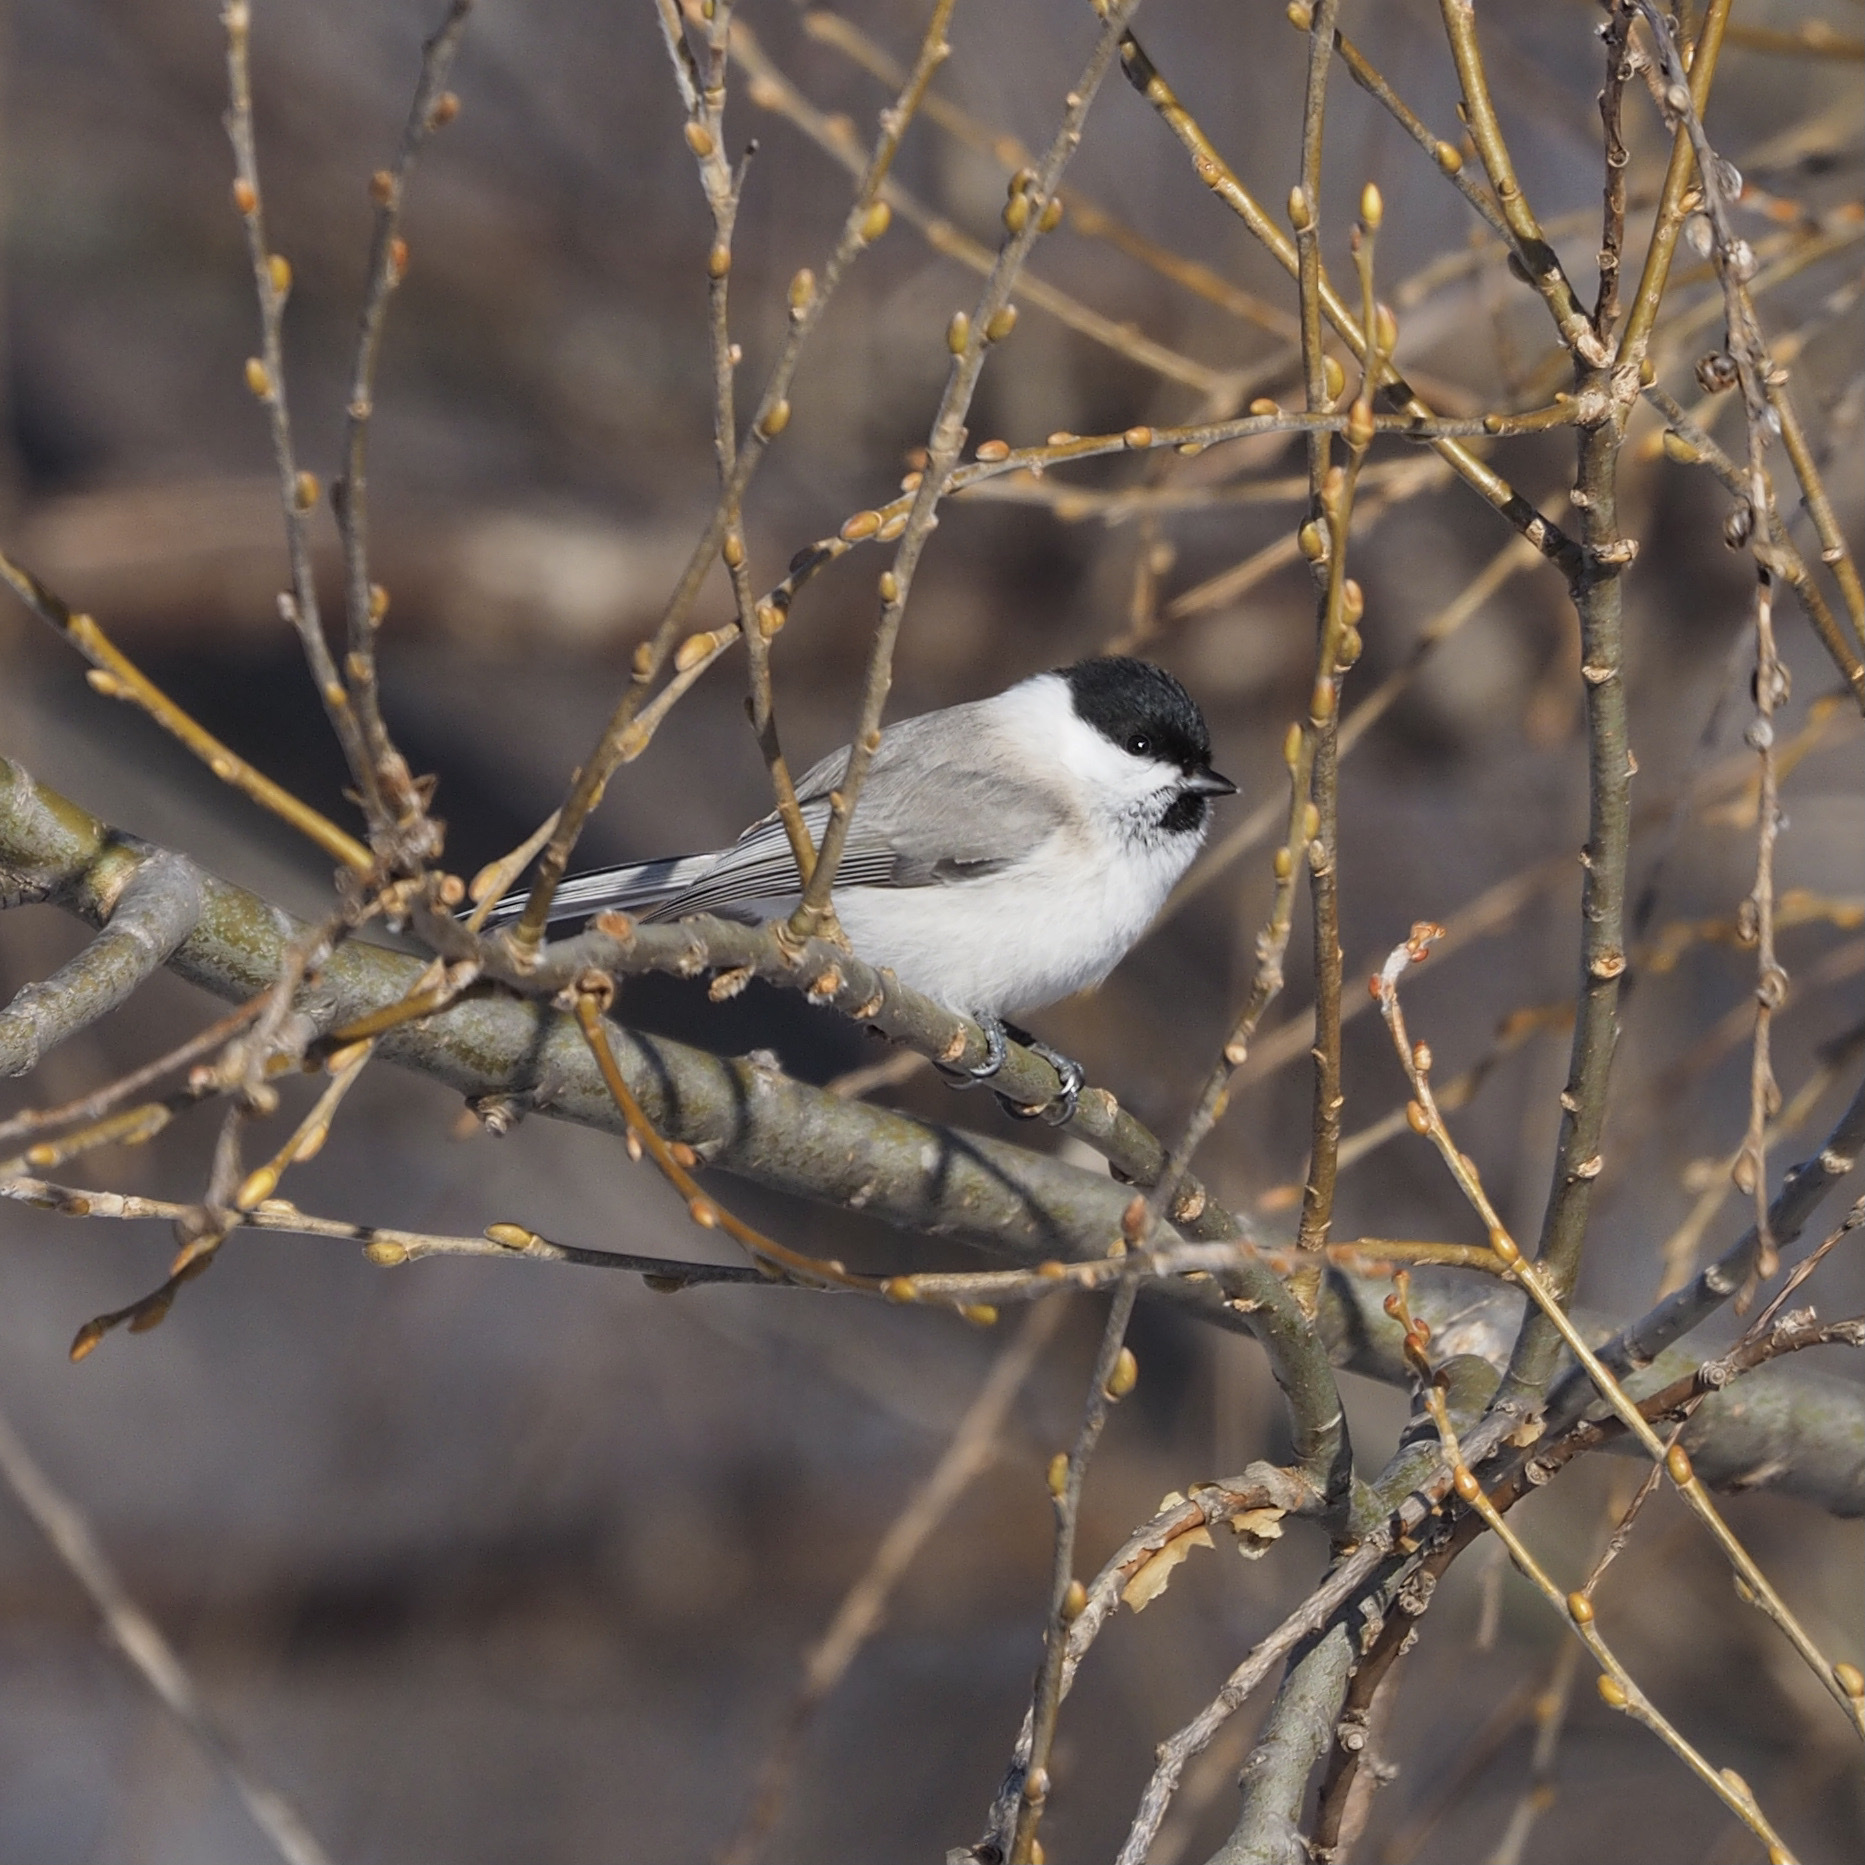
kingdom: Animalia
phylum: Chordata
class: Aves
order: Passeriformes
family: Paridae
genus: Poecile
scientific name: Poecile palustris
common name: Marsh tit
